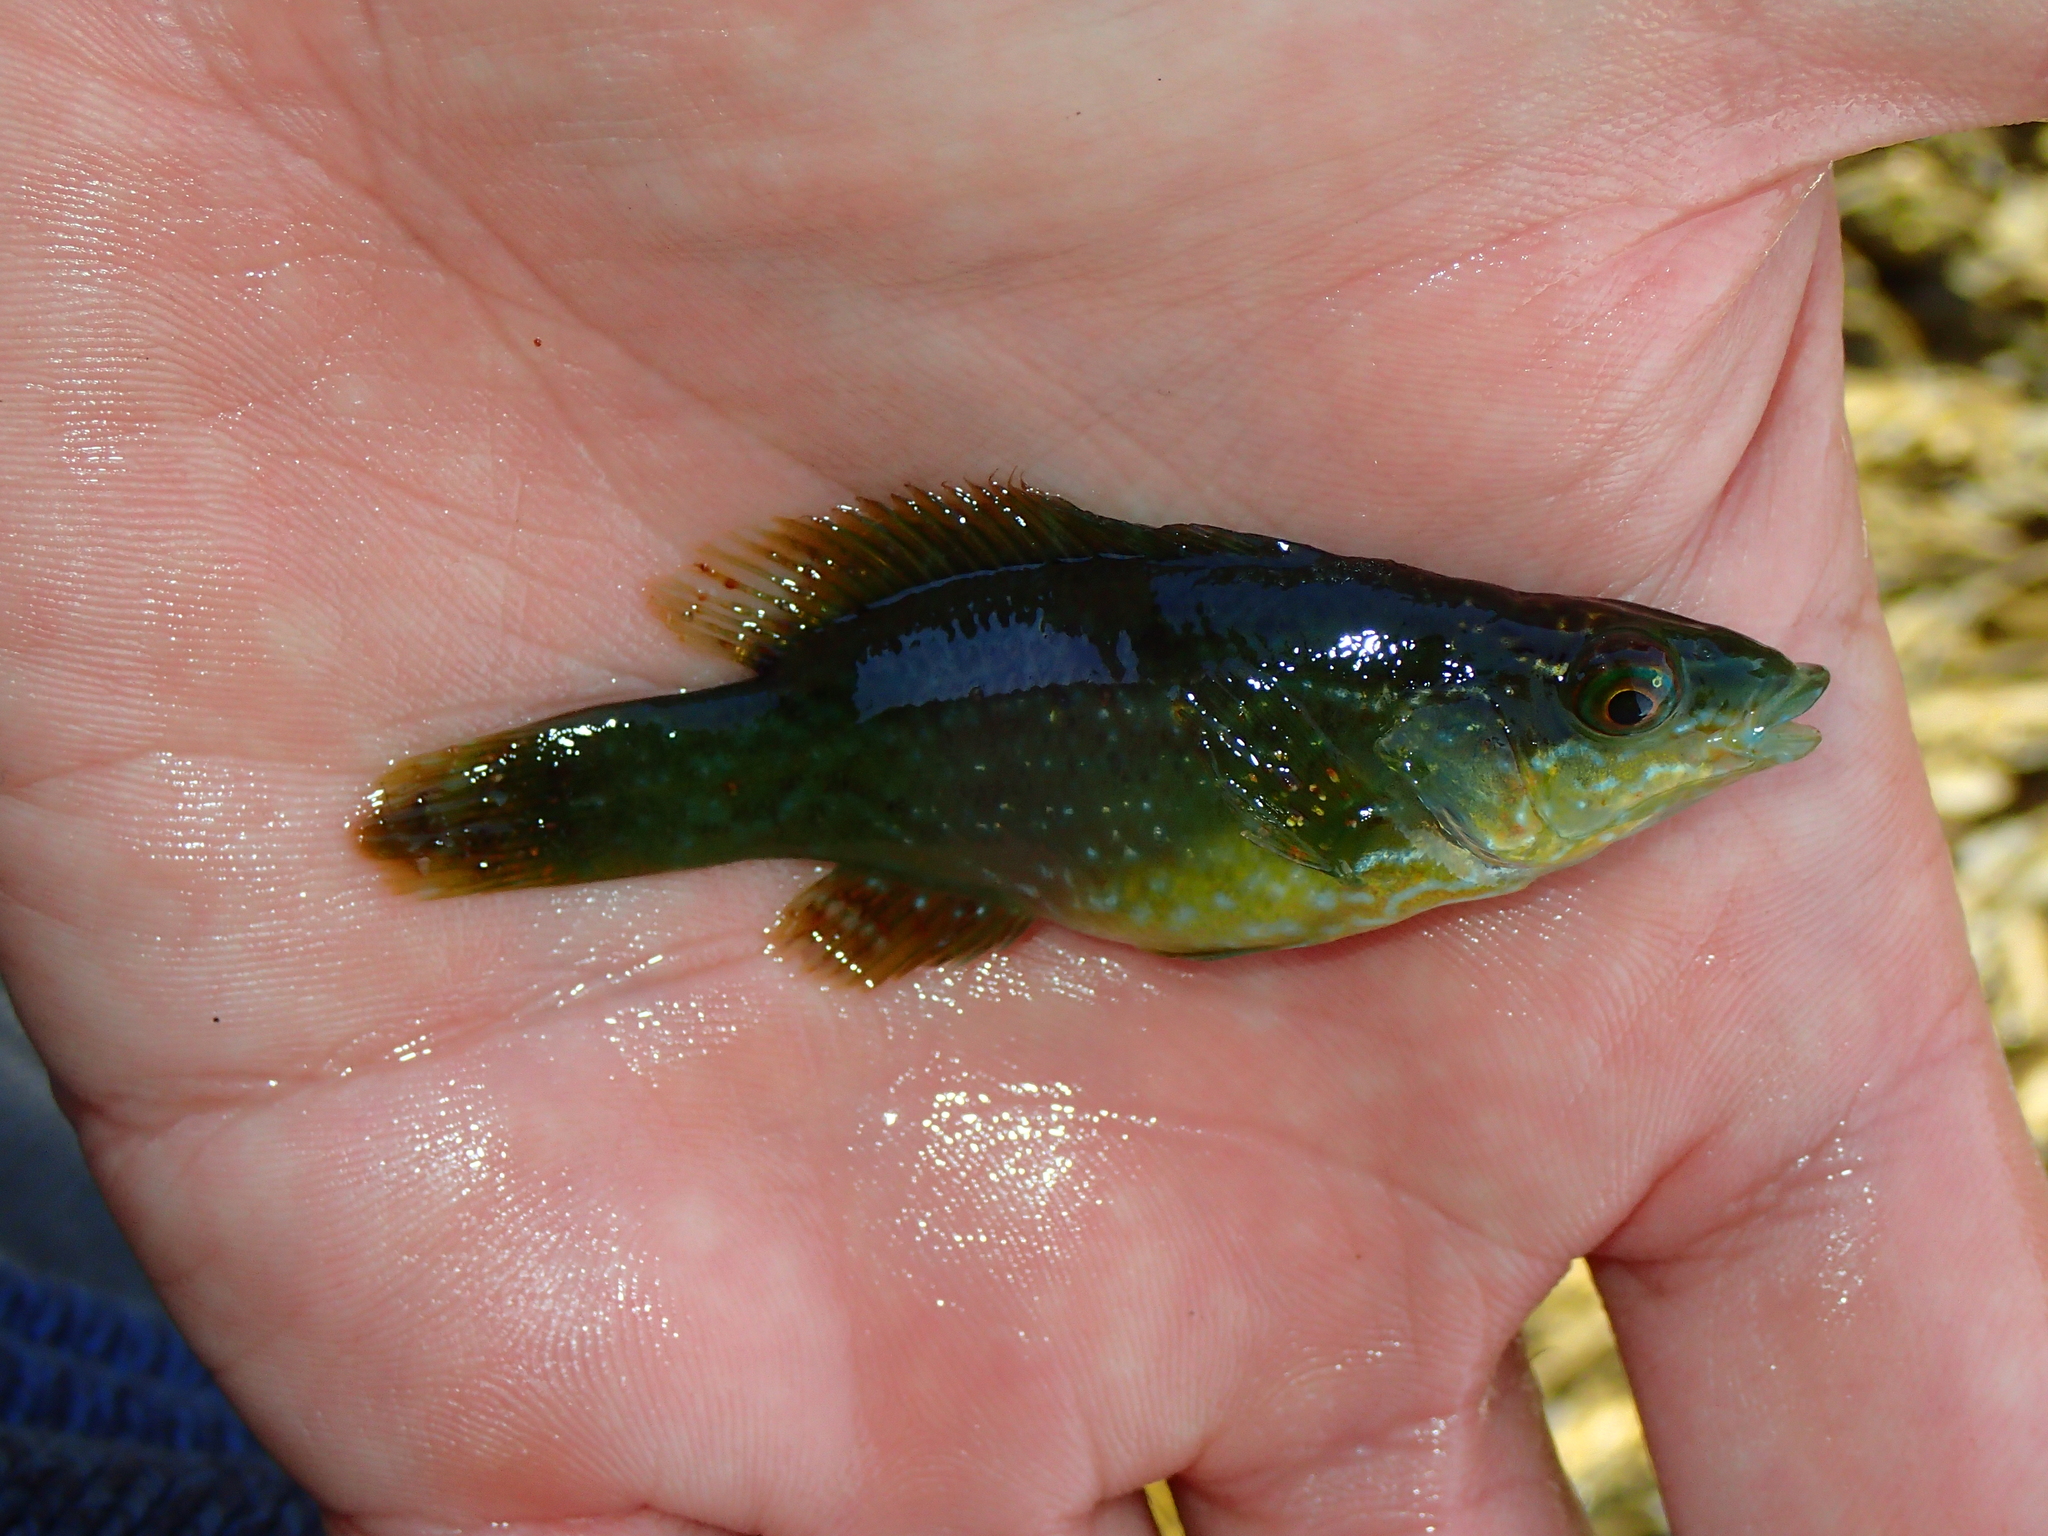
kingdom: Animalia
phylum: Chordata
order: Perciformes
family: Labridae
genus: Labrus
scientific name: Labrus bergylta
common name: Ballan wrasse
